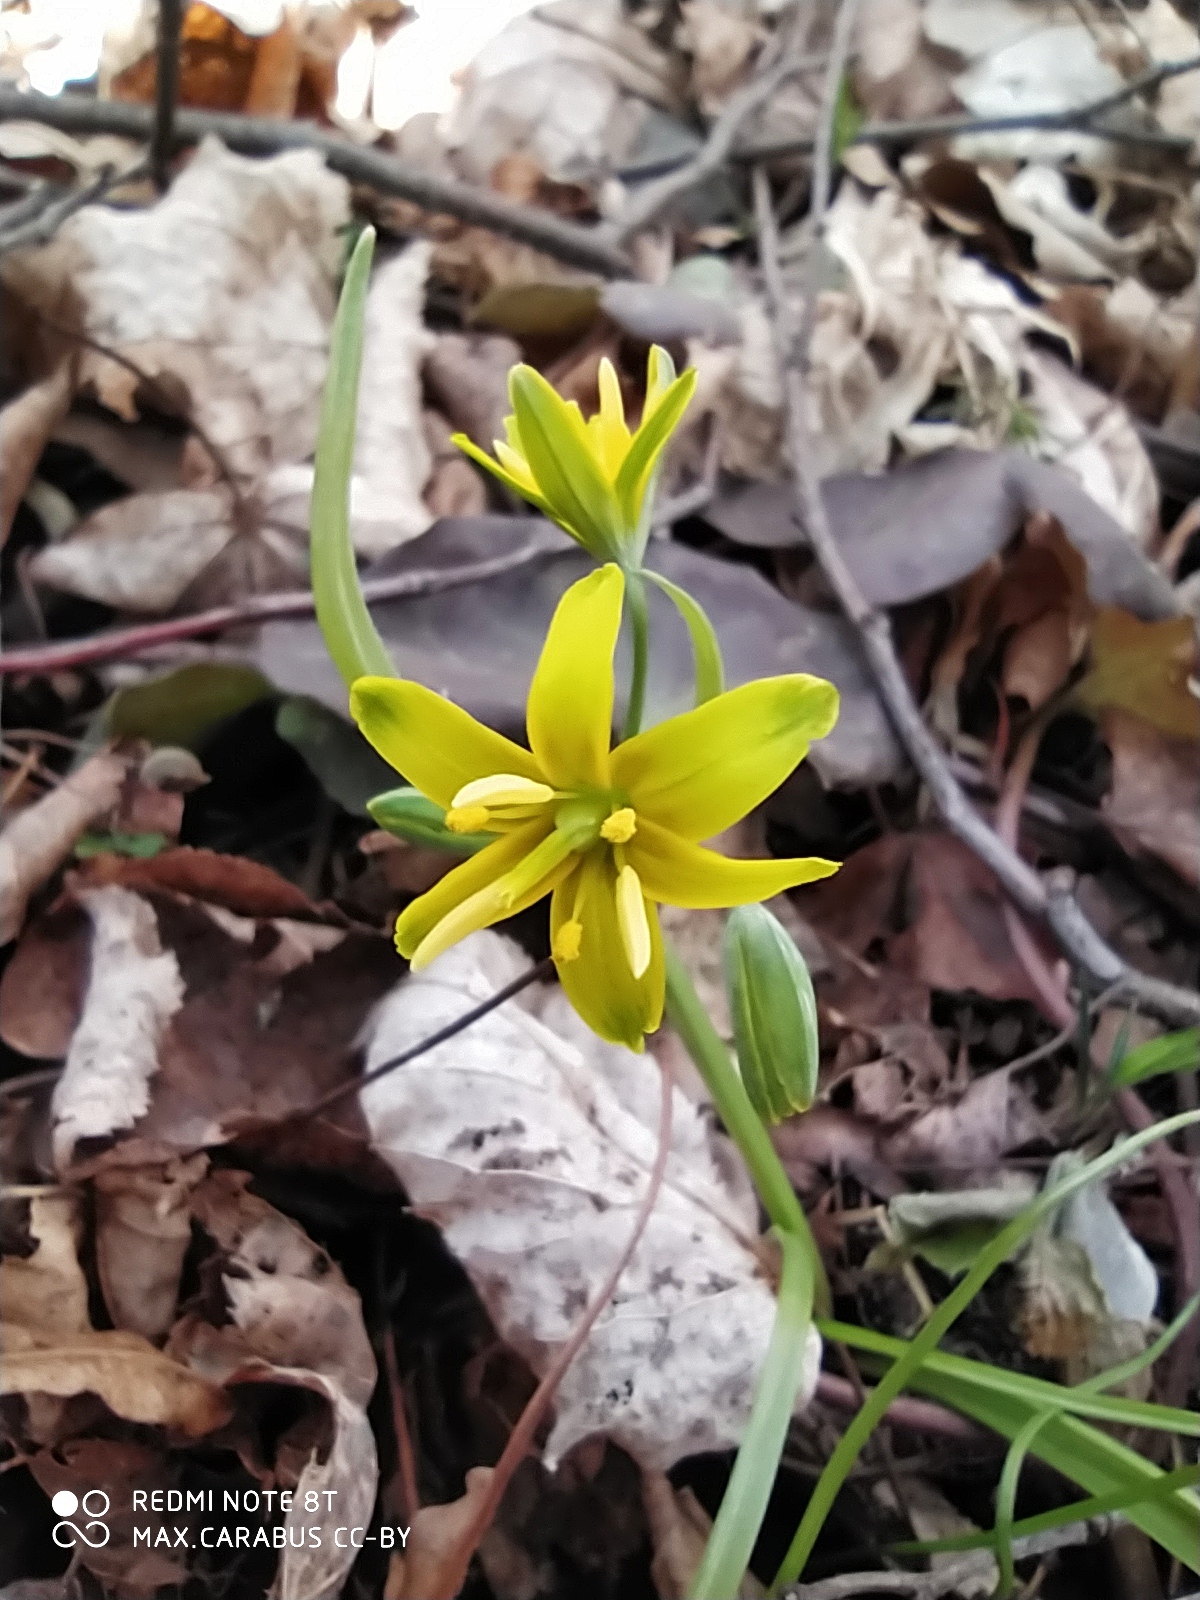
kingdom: Plantae
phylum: Tracheophyta
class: Liliopsida
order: Liliales
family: Liliaceae
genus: Gagea
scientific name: Gagea lutea
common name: Yellow star-of-bethlehem
